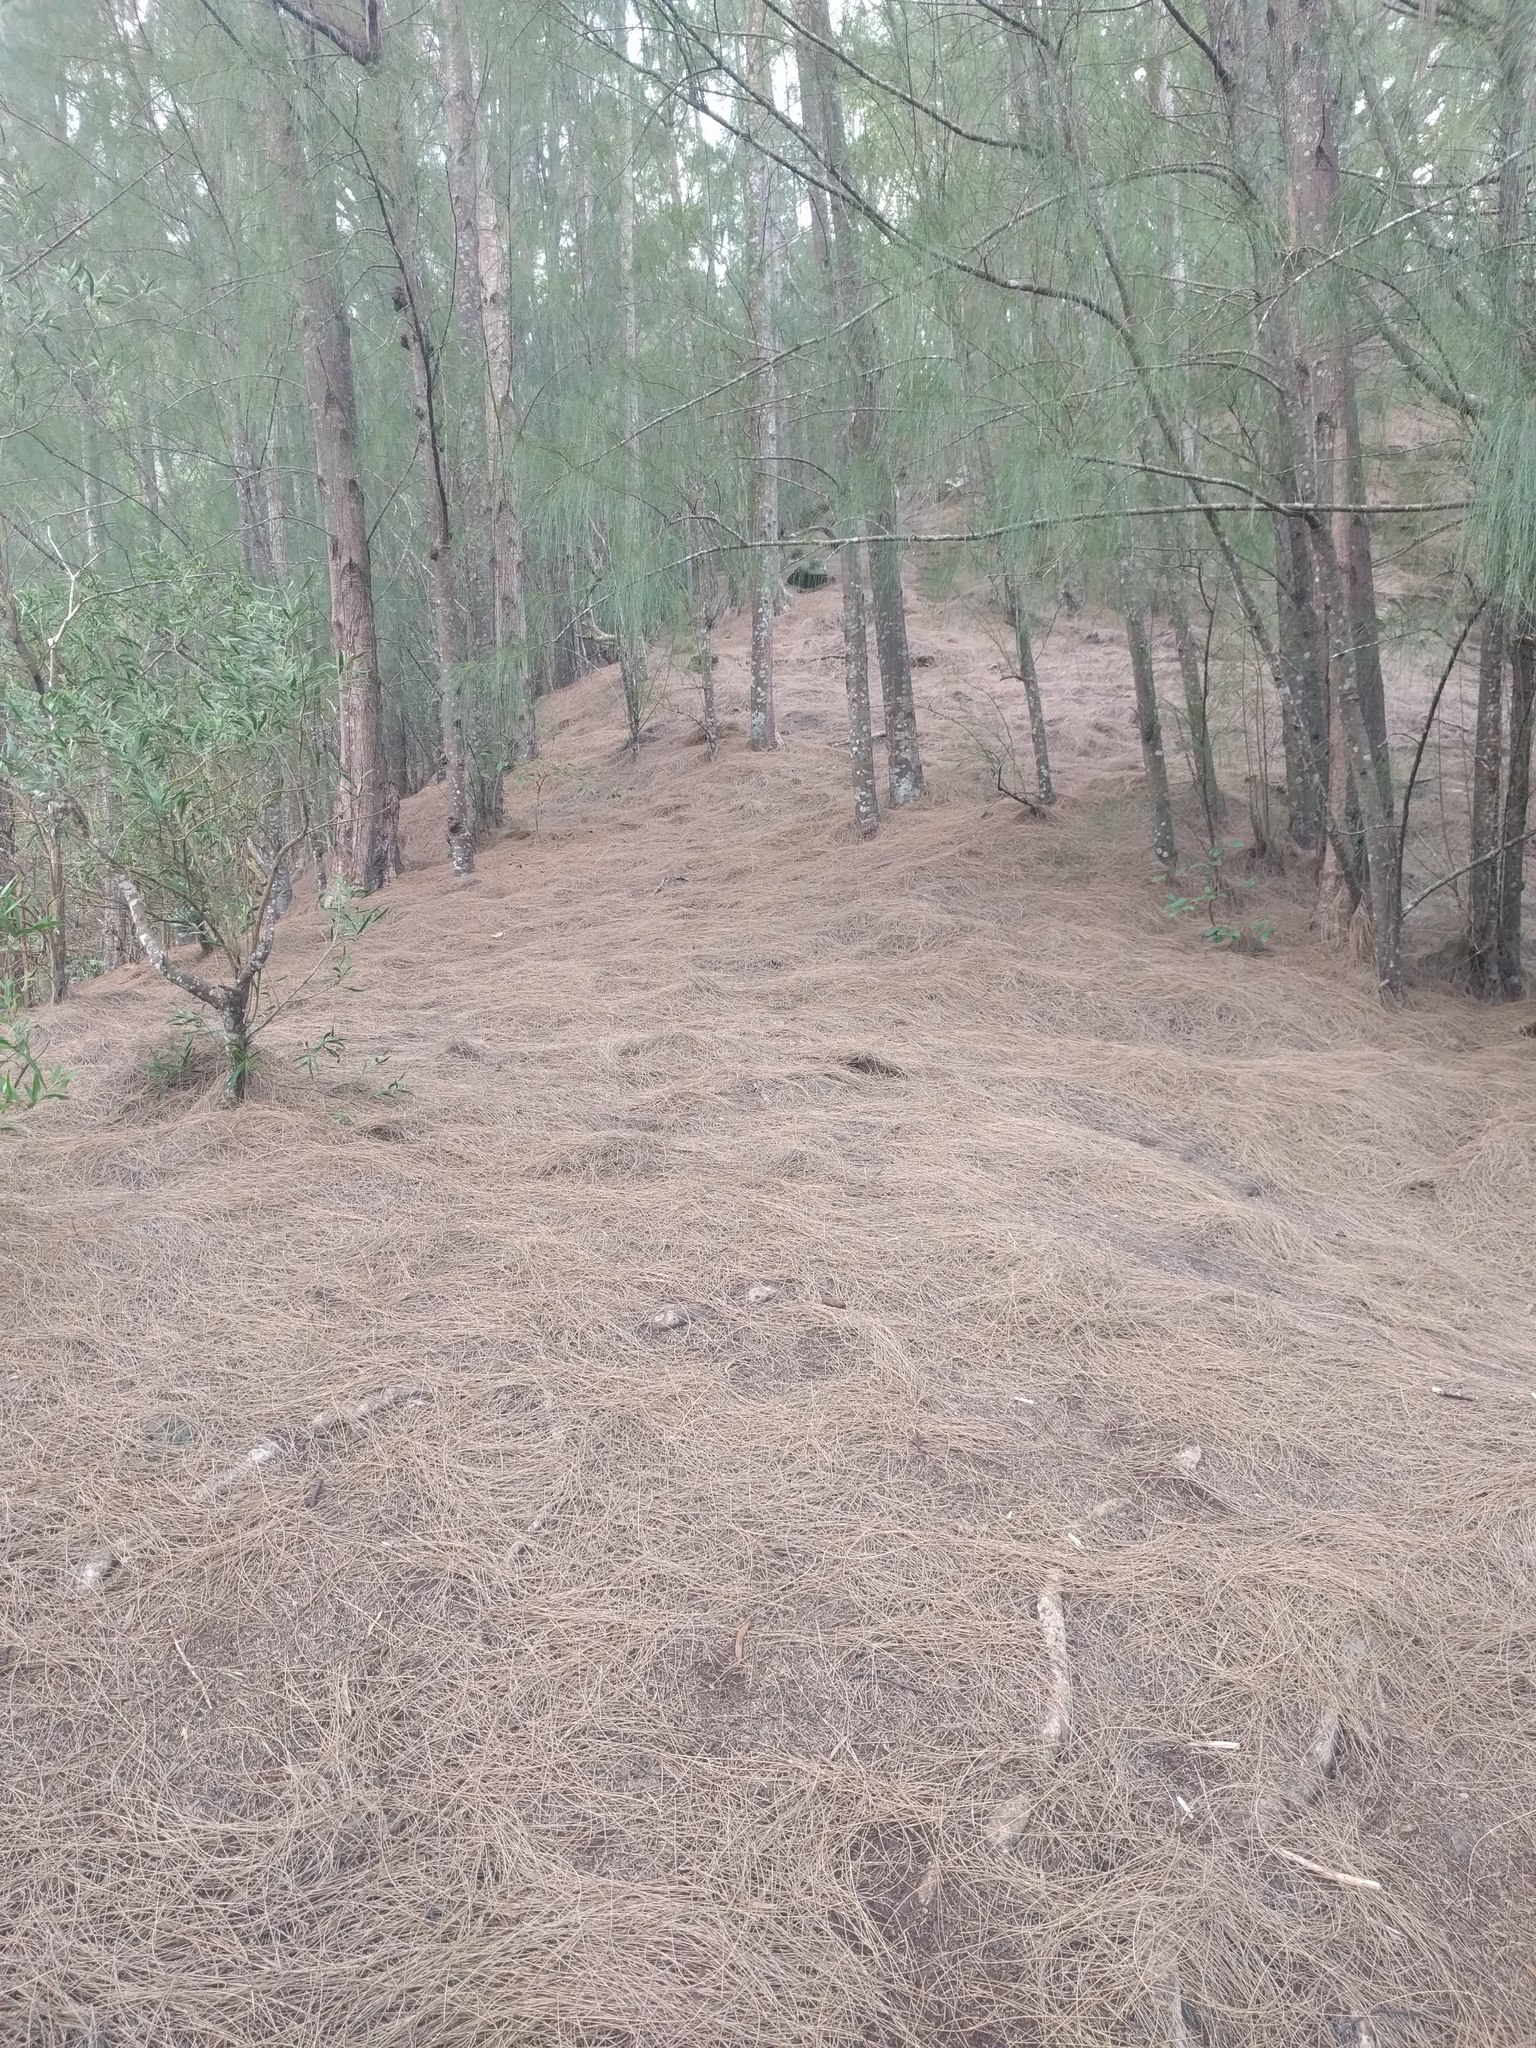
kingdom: Plantae
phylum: Tracheophyta
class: Magnoliopsida
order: Fagales
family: Casuarinaceae
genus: Casuarina
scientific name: Casuarina equisetifolia
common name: Beach sheoak
